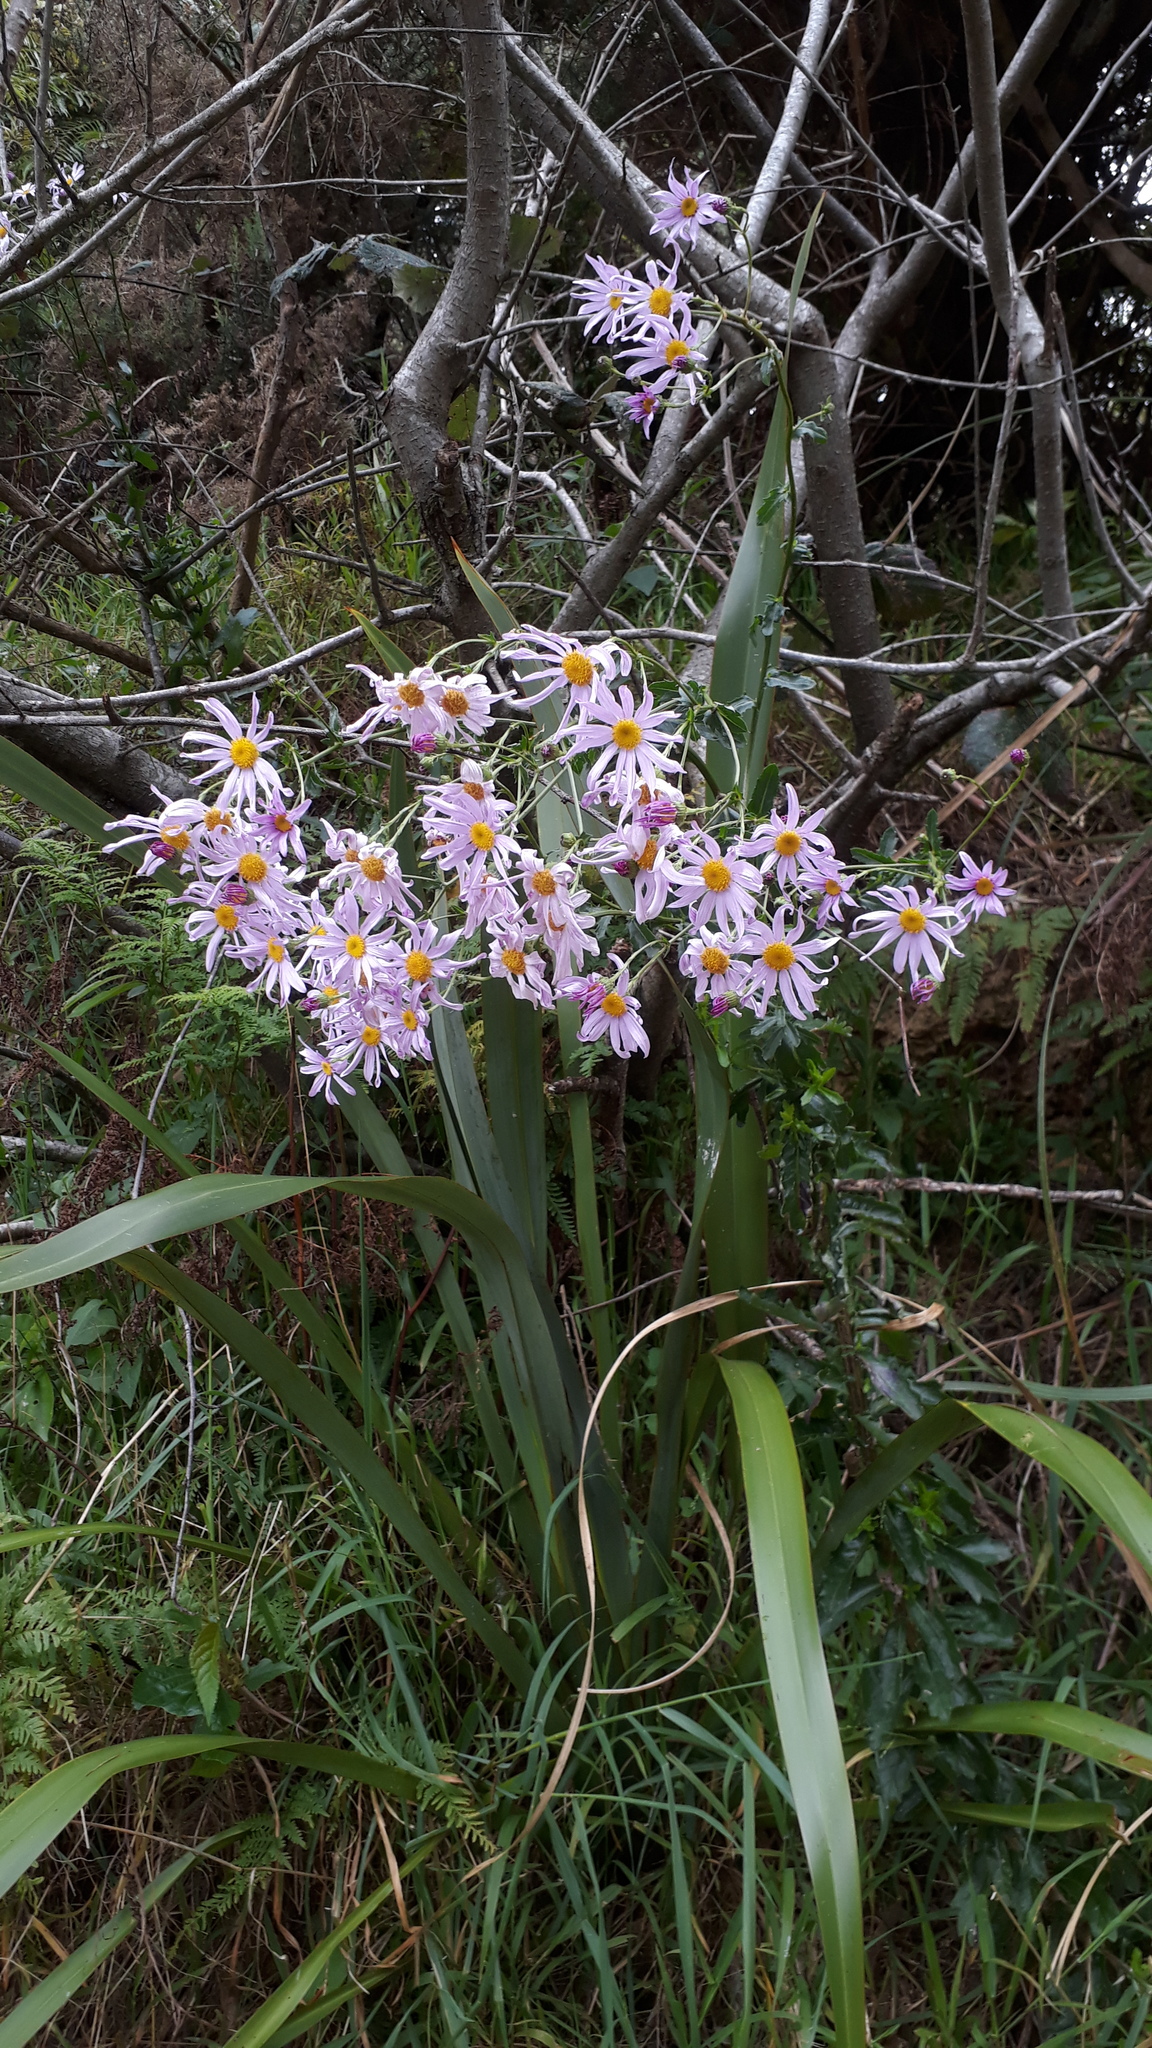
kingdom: Plantae
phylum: Tracheophyta
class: Magnoliopsida
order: Asterales
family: Asteraceae
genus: Senecio
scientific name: Senecio glastifolius
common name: Woad-leaved ragwort
